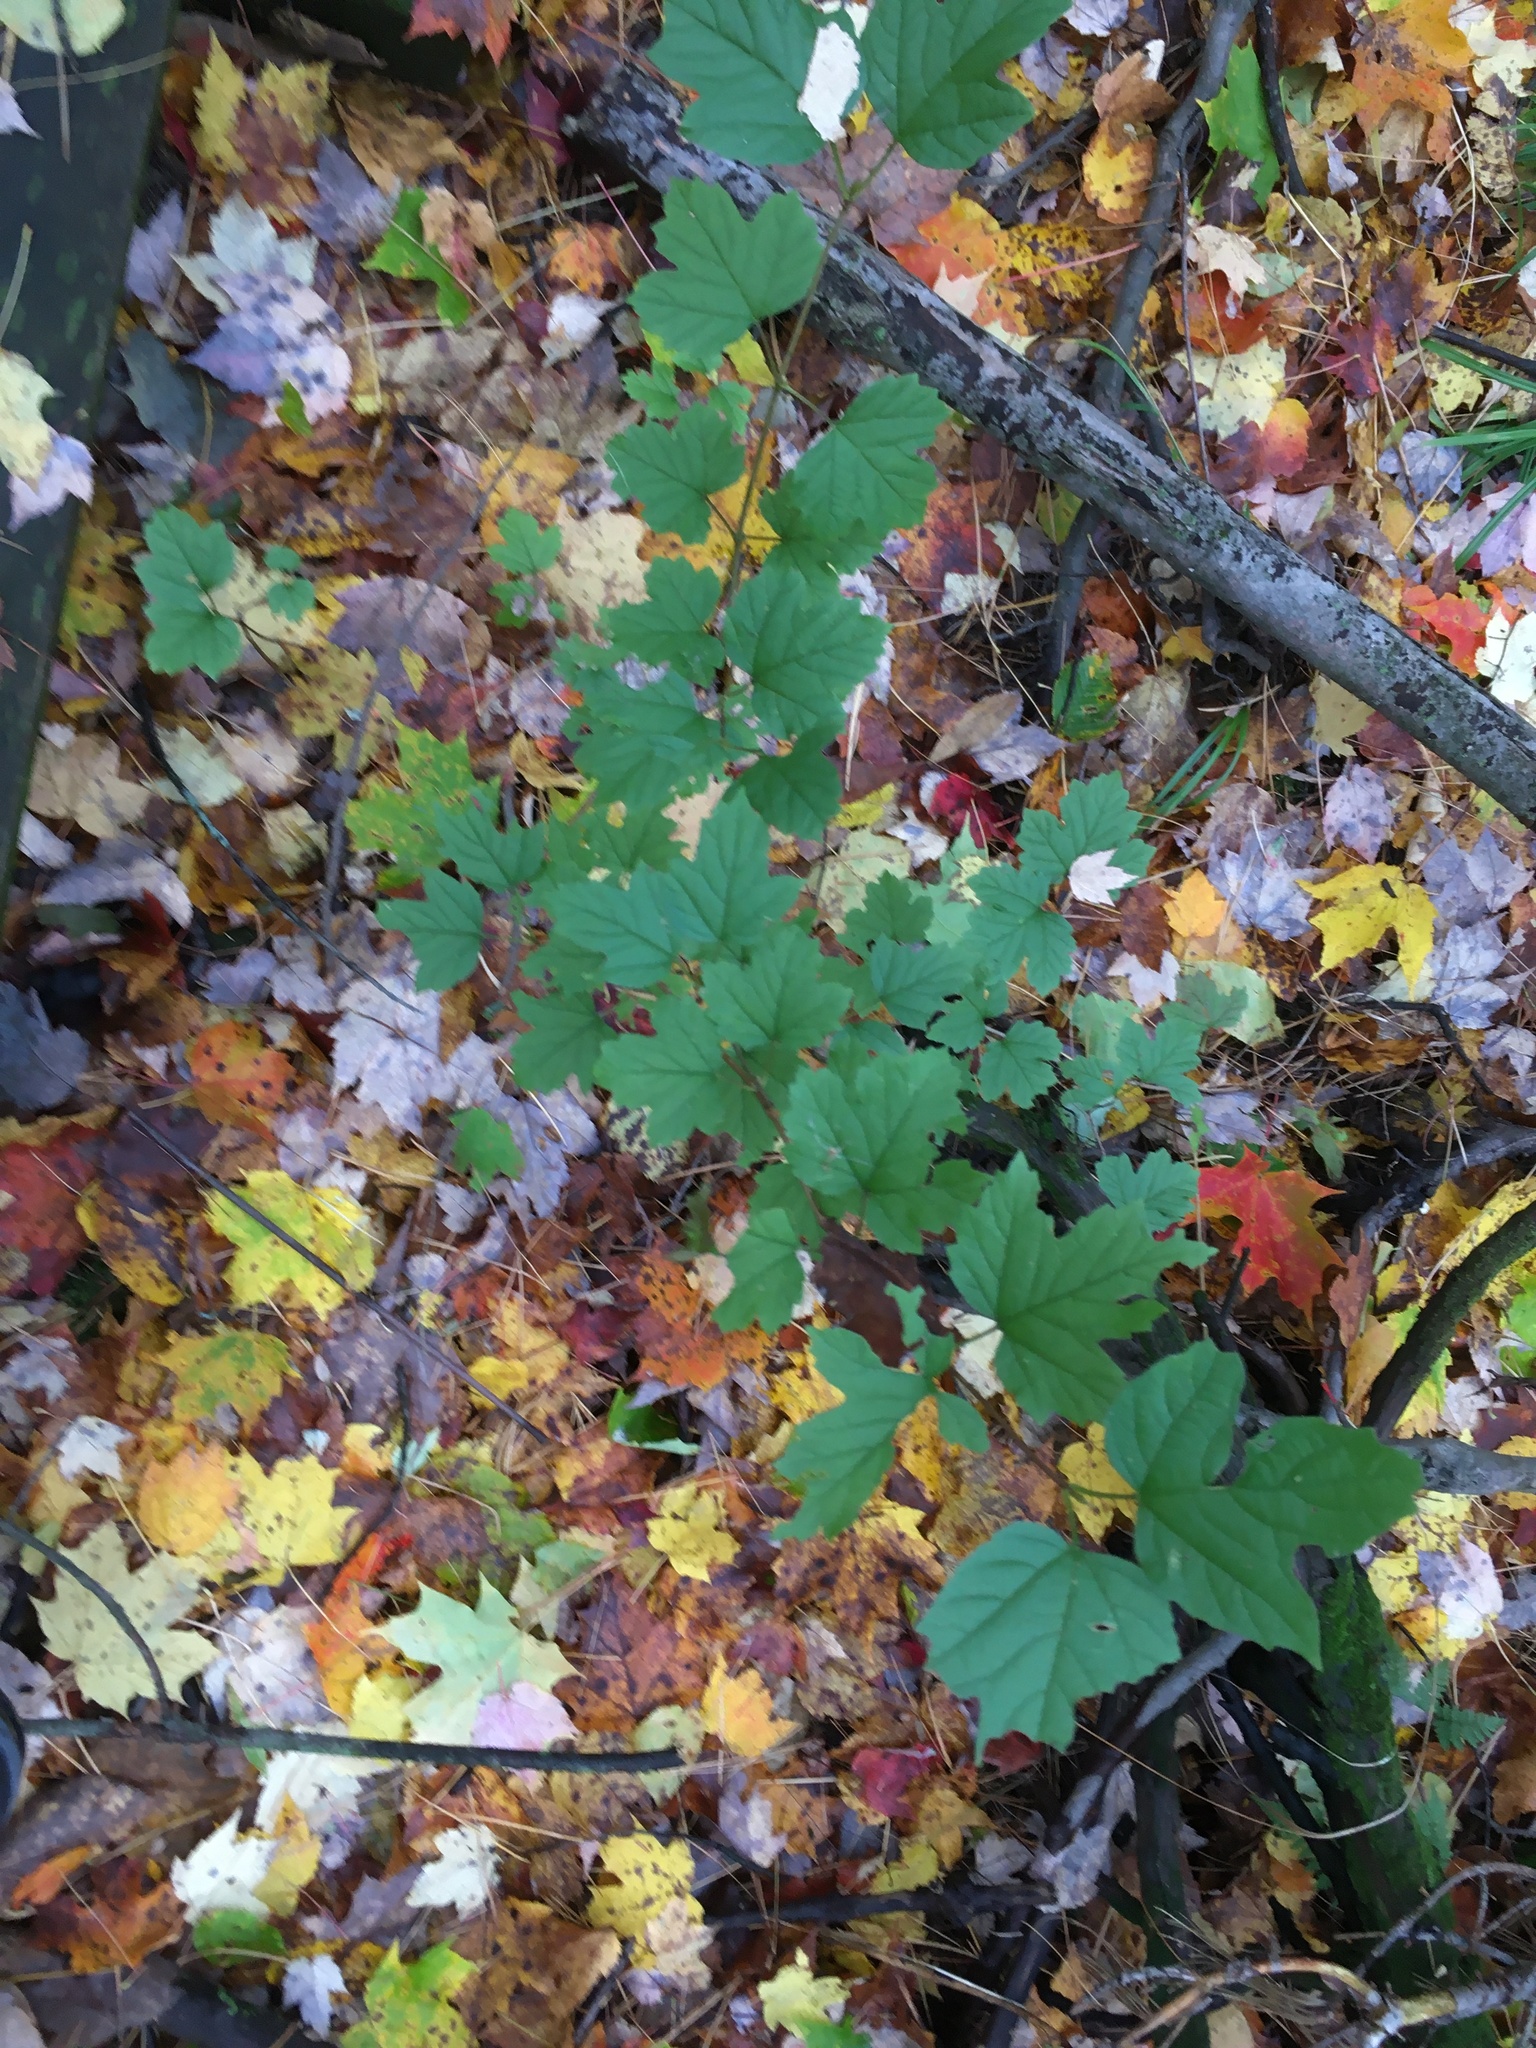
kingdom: Plantae
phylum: Tracheophyta
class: Magnoliopsida
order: Dipsacales
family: Viburnaceae
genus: Viburnum
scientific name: Viburnum acerifolium
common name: Dockmackie
